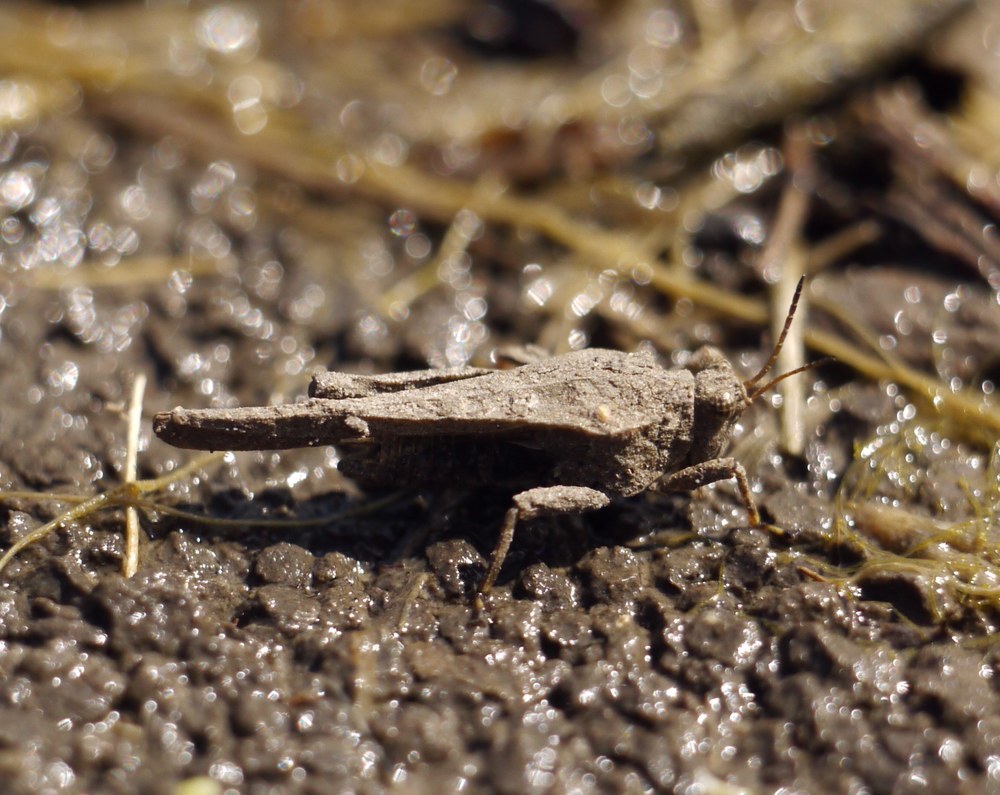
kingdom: Animalia
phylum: Arthropoda
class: Insecta
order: Orthoptera
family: Tetrigidae
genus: Tetrix
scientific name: Tetrix subulata
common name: Slender ground-hopper
